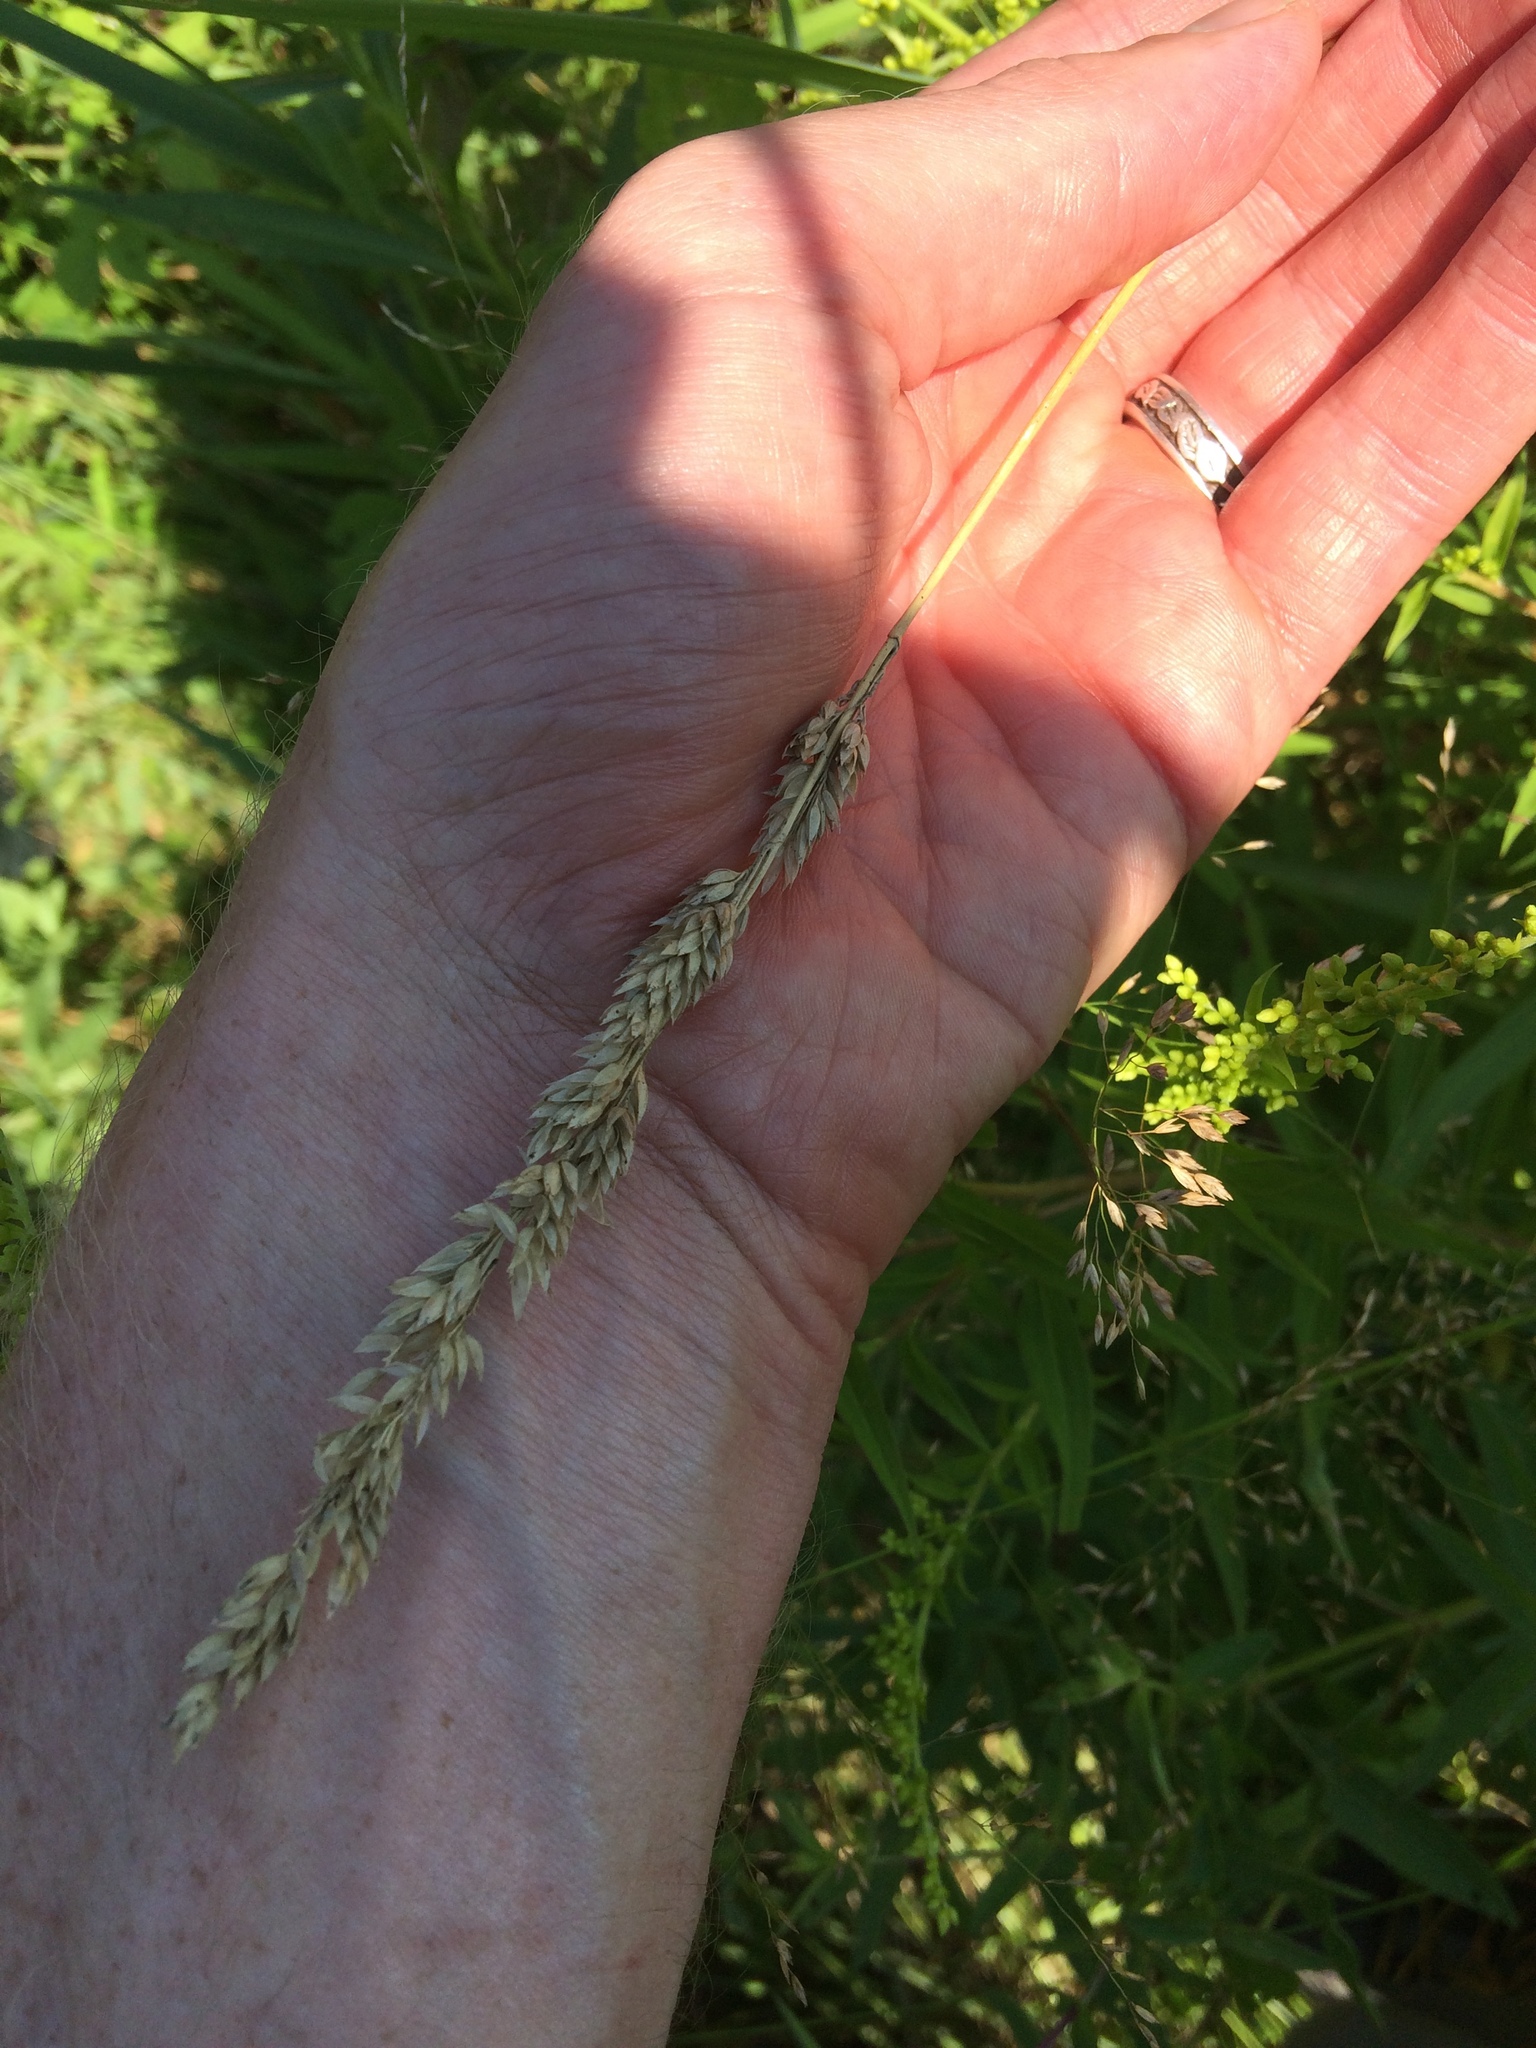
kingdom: Plantae
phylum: Tracheophyta
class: Liliopsida
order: Poales
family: Poaceae
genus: Phalaris
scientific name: Phalaris arundinacea
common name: Reed canary-grass
